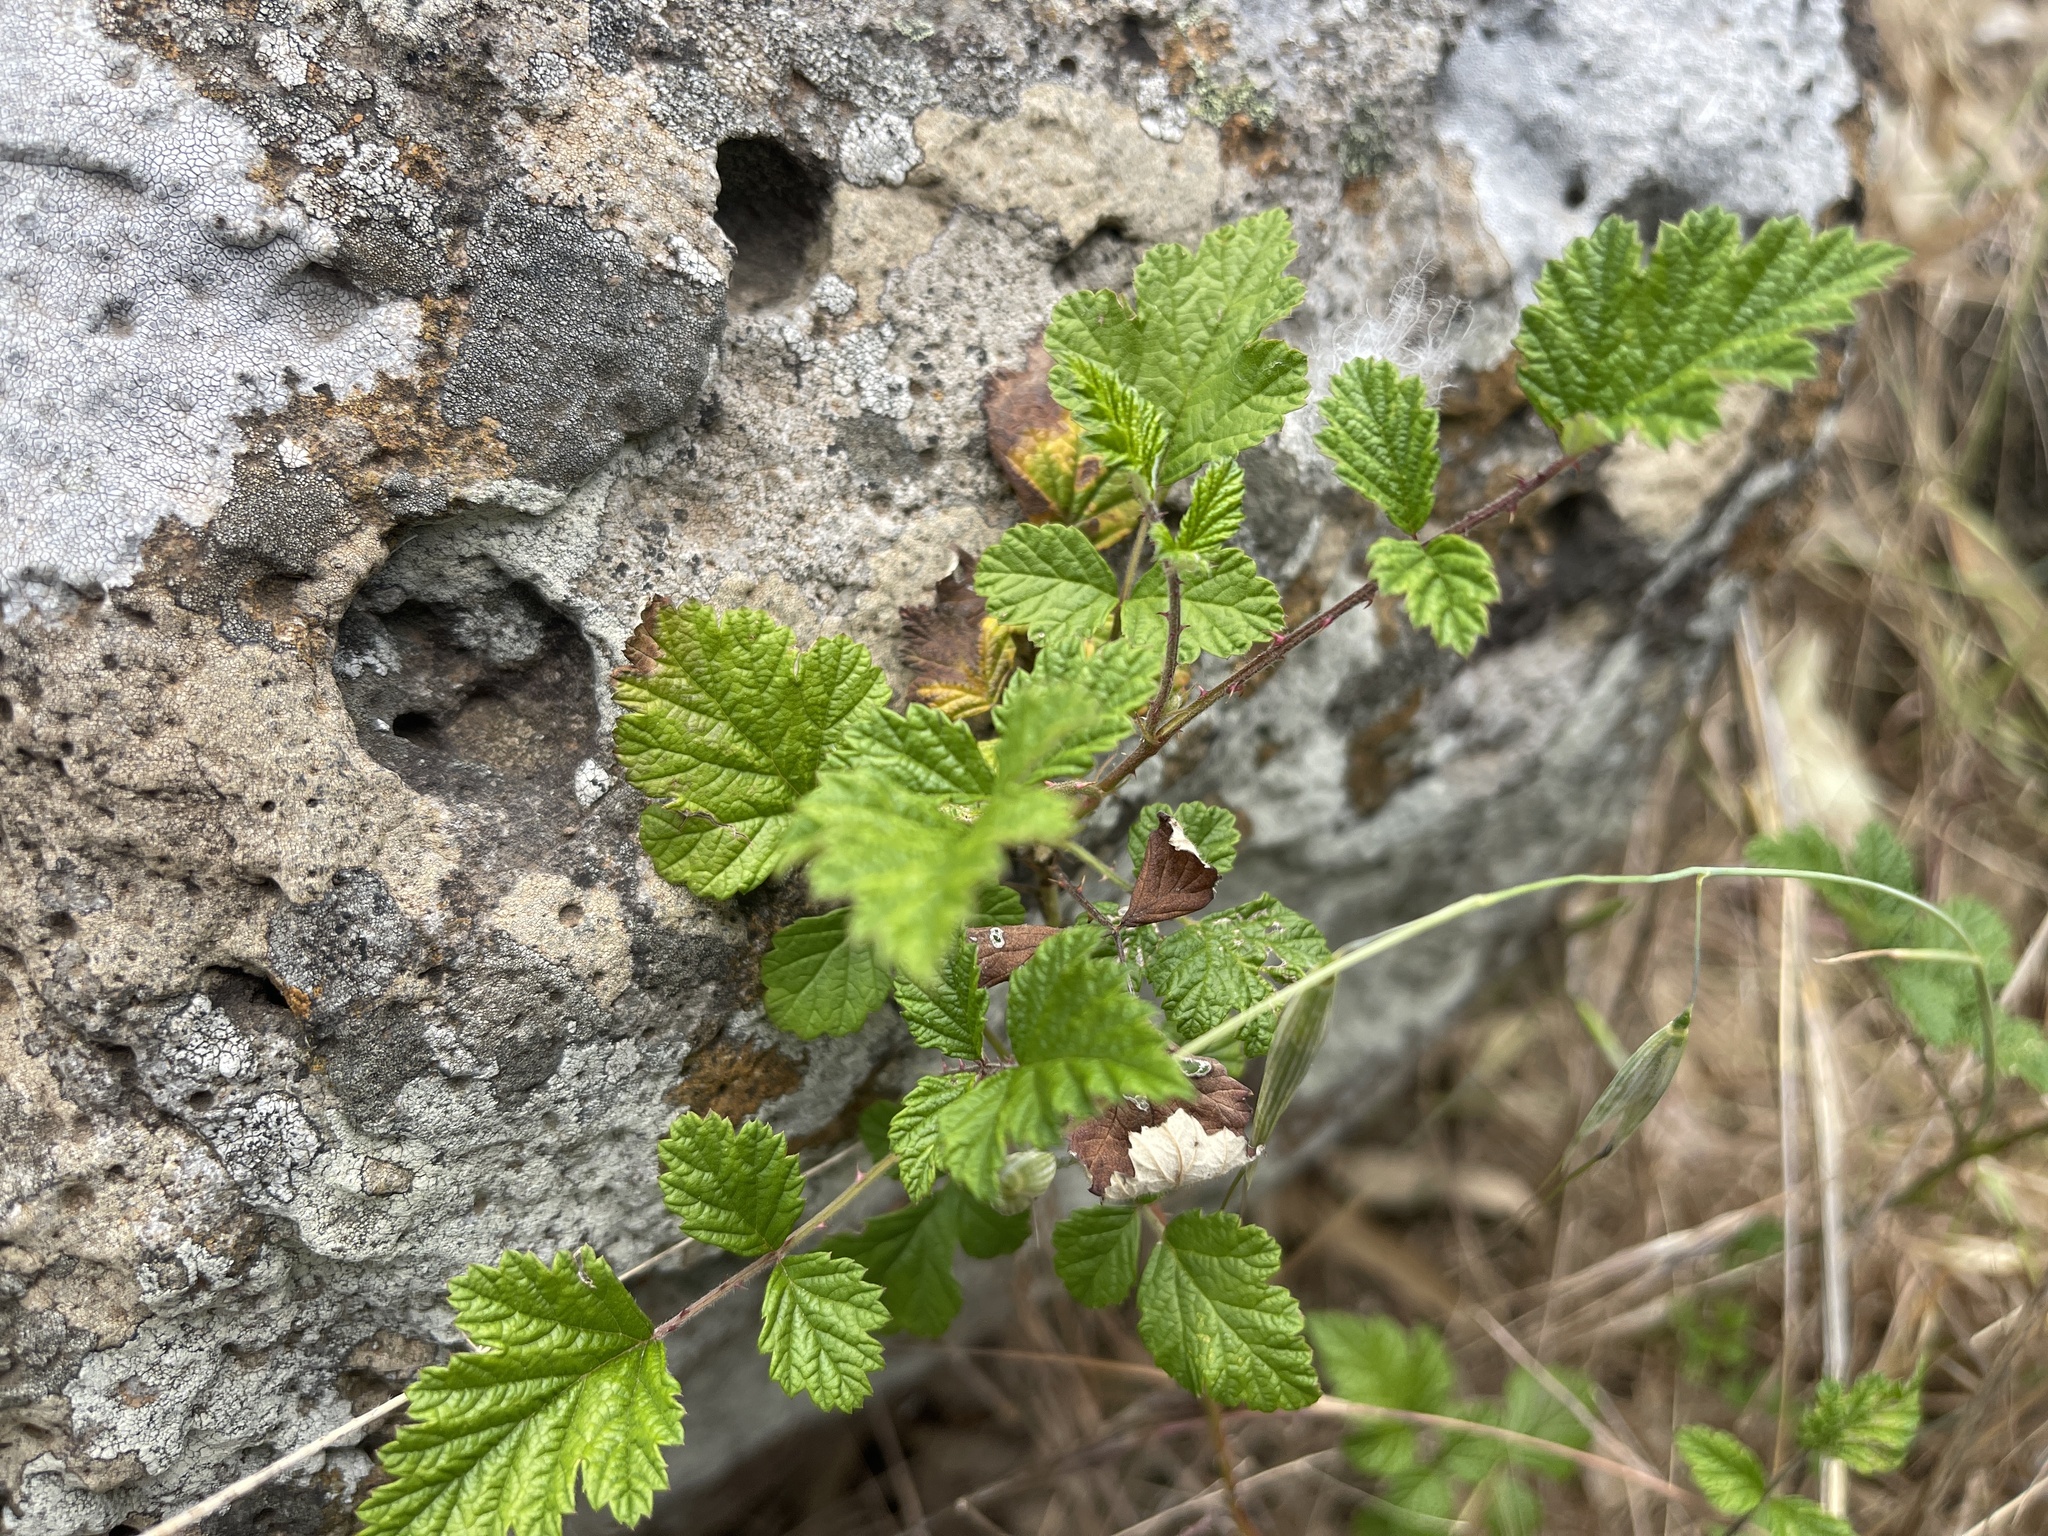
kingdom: Plantae
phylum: Tracheophyta
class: Magnoliopsida
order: Rosales
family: Rosaceae
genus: Rubus
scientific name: Rubus parvifolius
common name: Threeleaf blackberry
